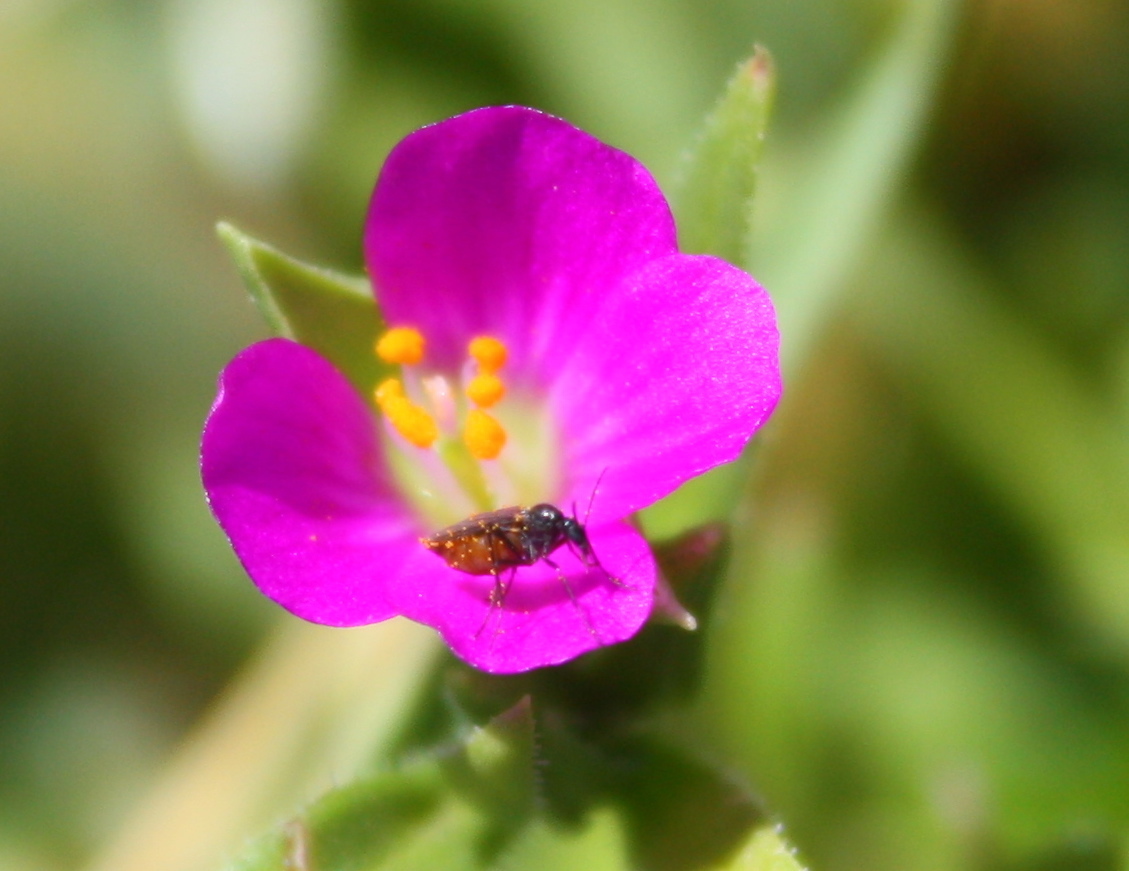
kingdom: Plantae
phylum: Tracheophyta
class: Magnoliopsida
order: Caryophyllales
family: Montiaceae
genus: Calandrinia
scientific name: Calandrinia menziesii
